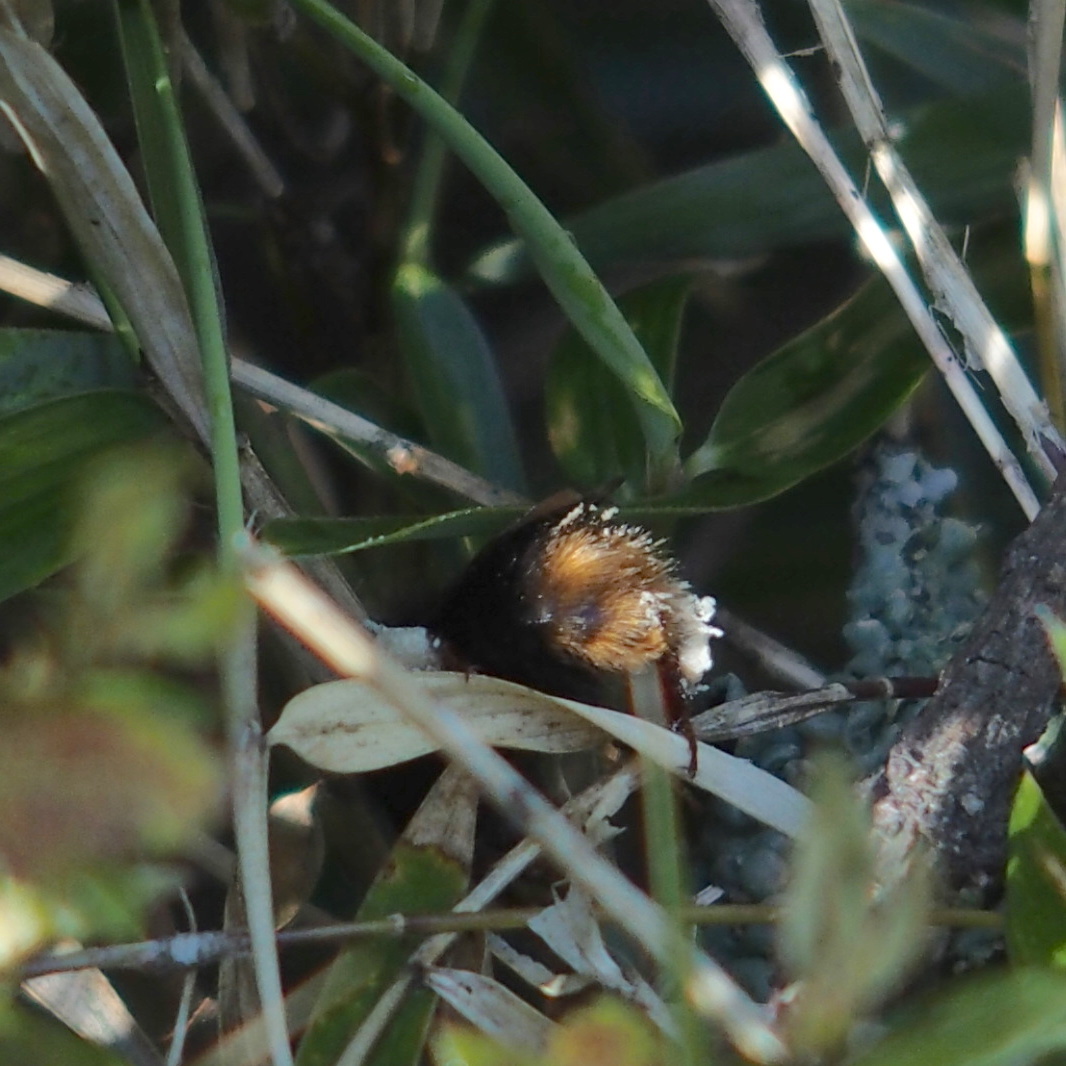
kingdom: Animalia
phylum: Arthropoda
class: Insecta
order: Hymenoptera
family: Apidae
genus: Bombus
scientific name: Bombus eximius
